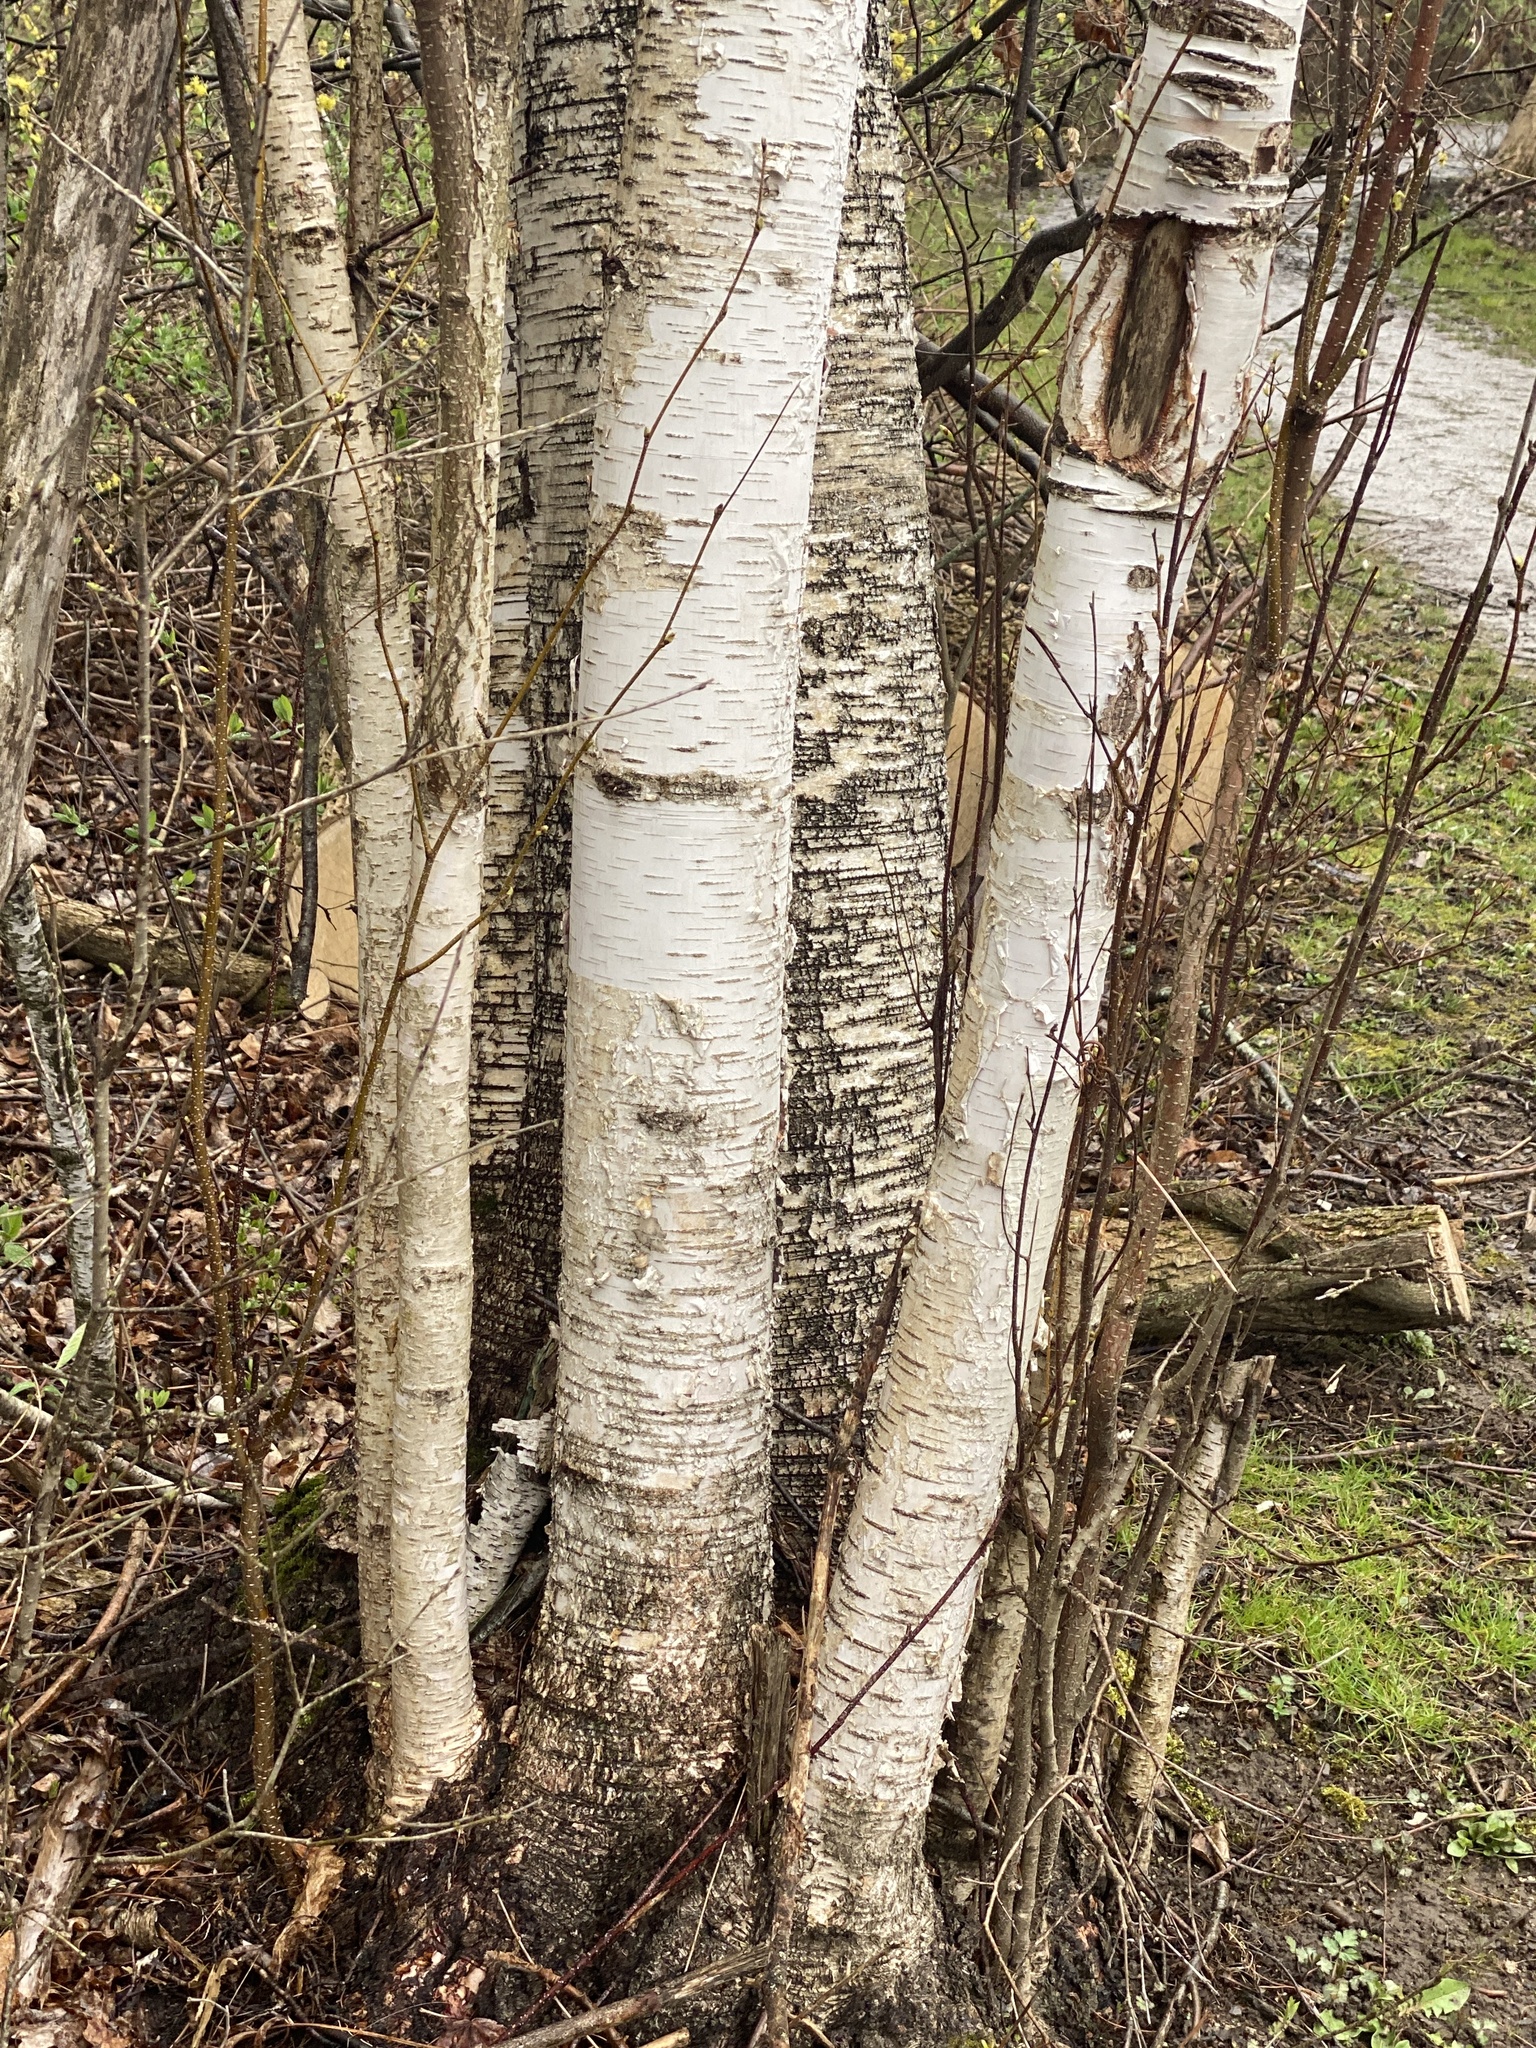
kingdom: Plantae
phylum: Tracheophyta
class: Magnoliopsida
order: Fagales
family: Betulaceae
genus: Betula
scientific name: Betula papyrifera
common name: Paper birch
